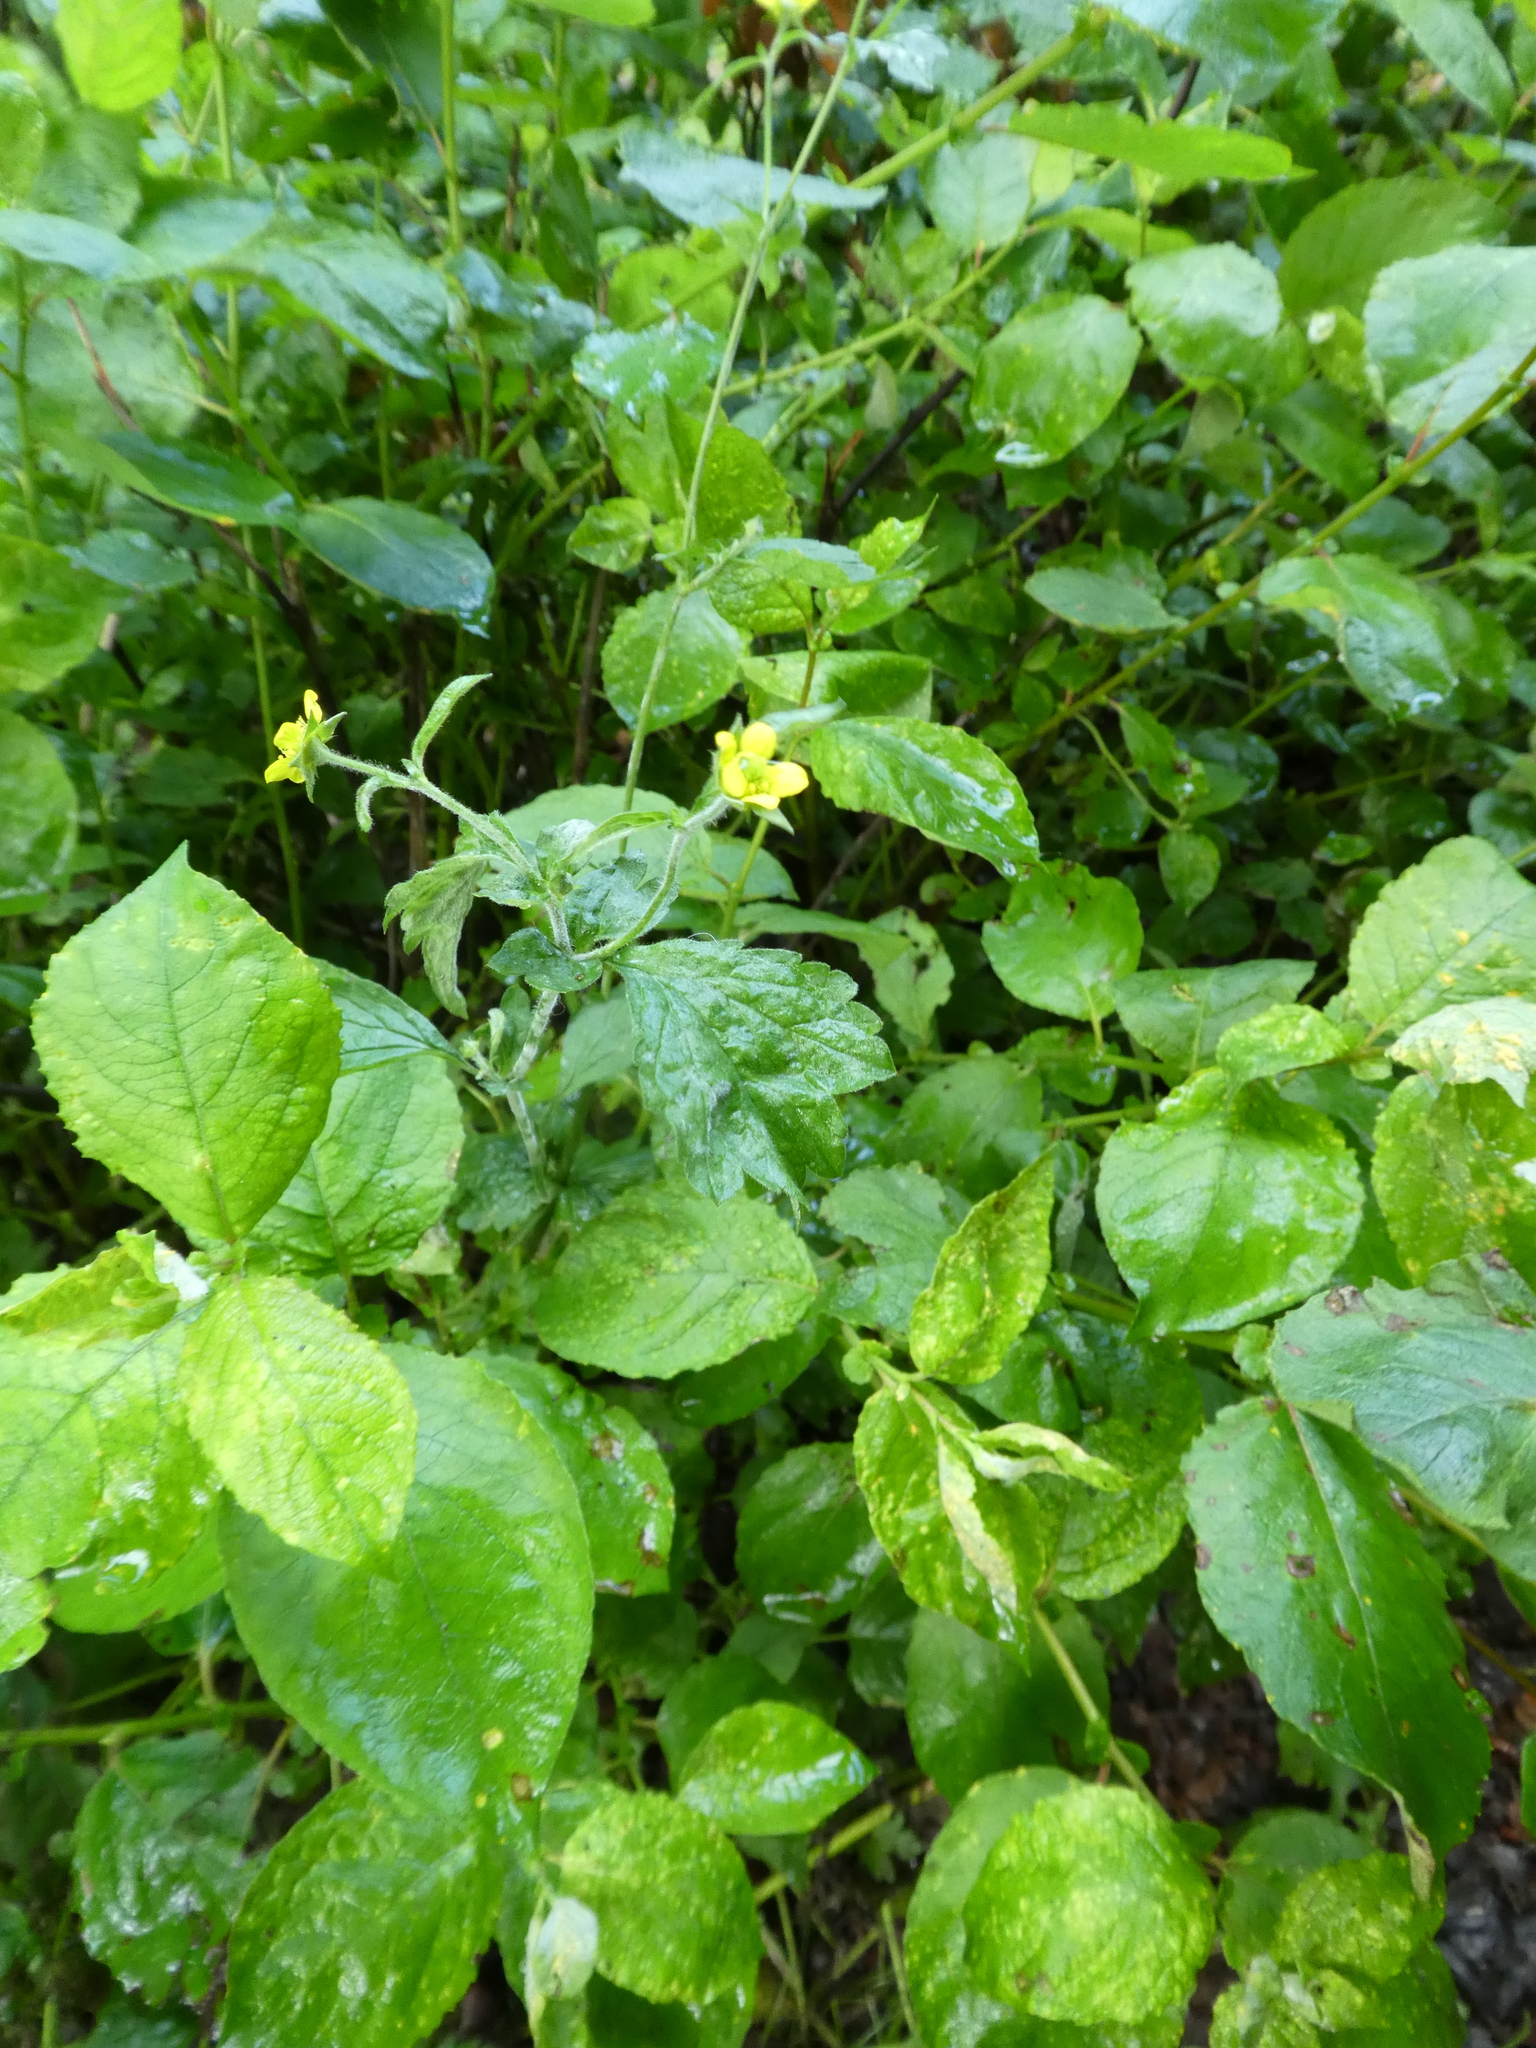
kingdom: Plantae
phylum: Tracheophyta
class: Magnoliopsida
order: Rosales
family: Rosaceae
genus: Geum
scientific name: Geum urbanum
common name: Wood avens
